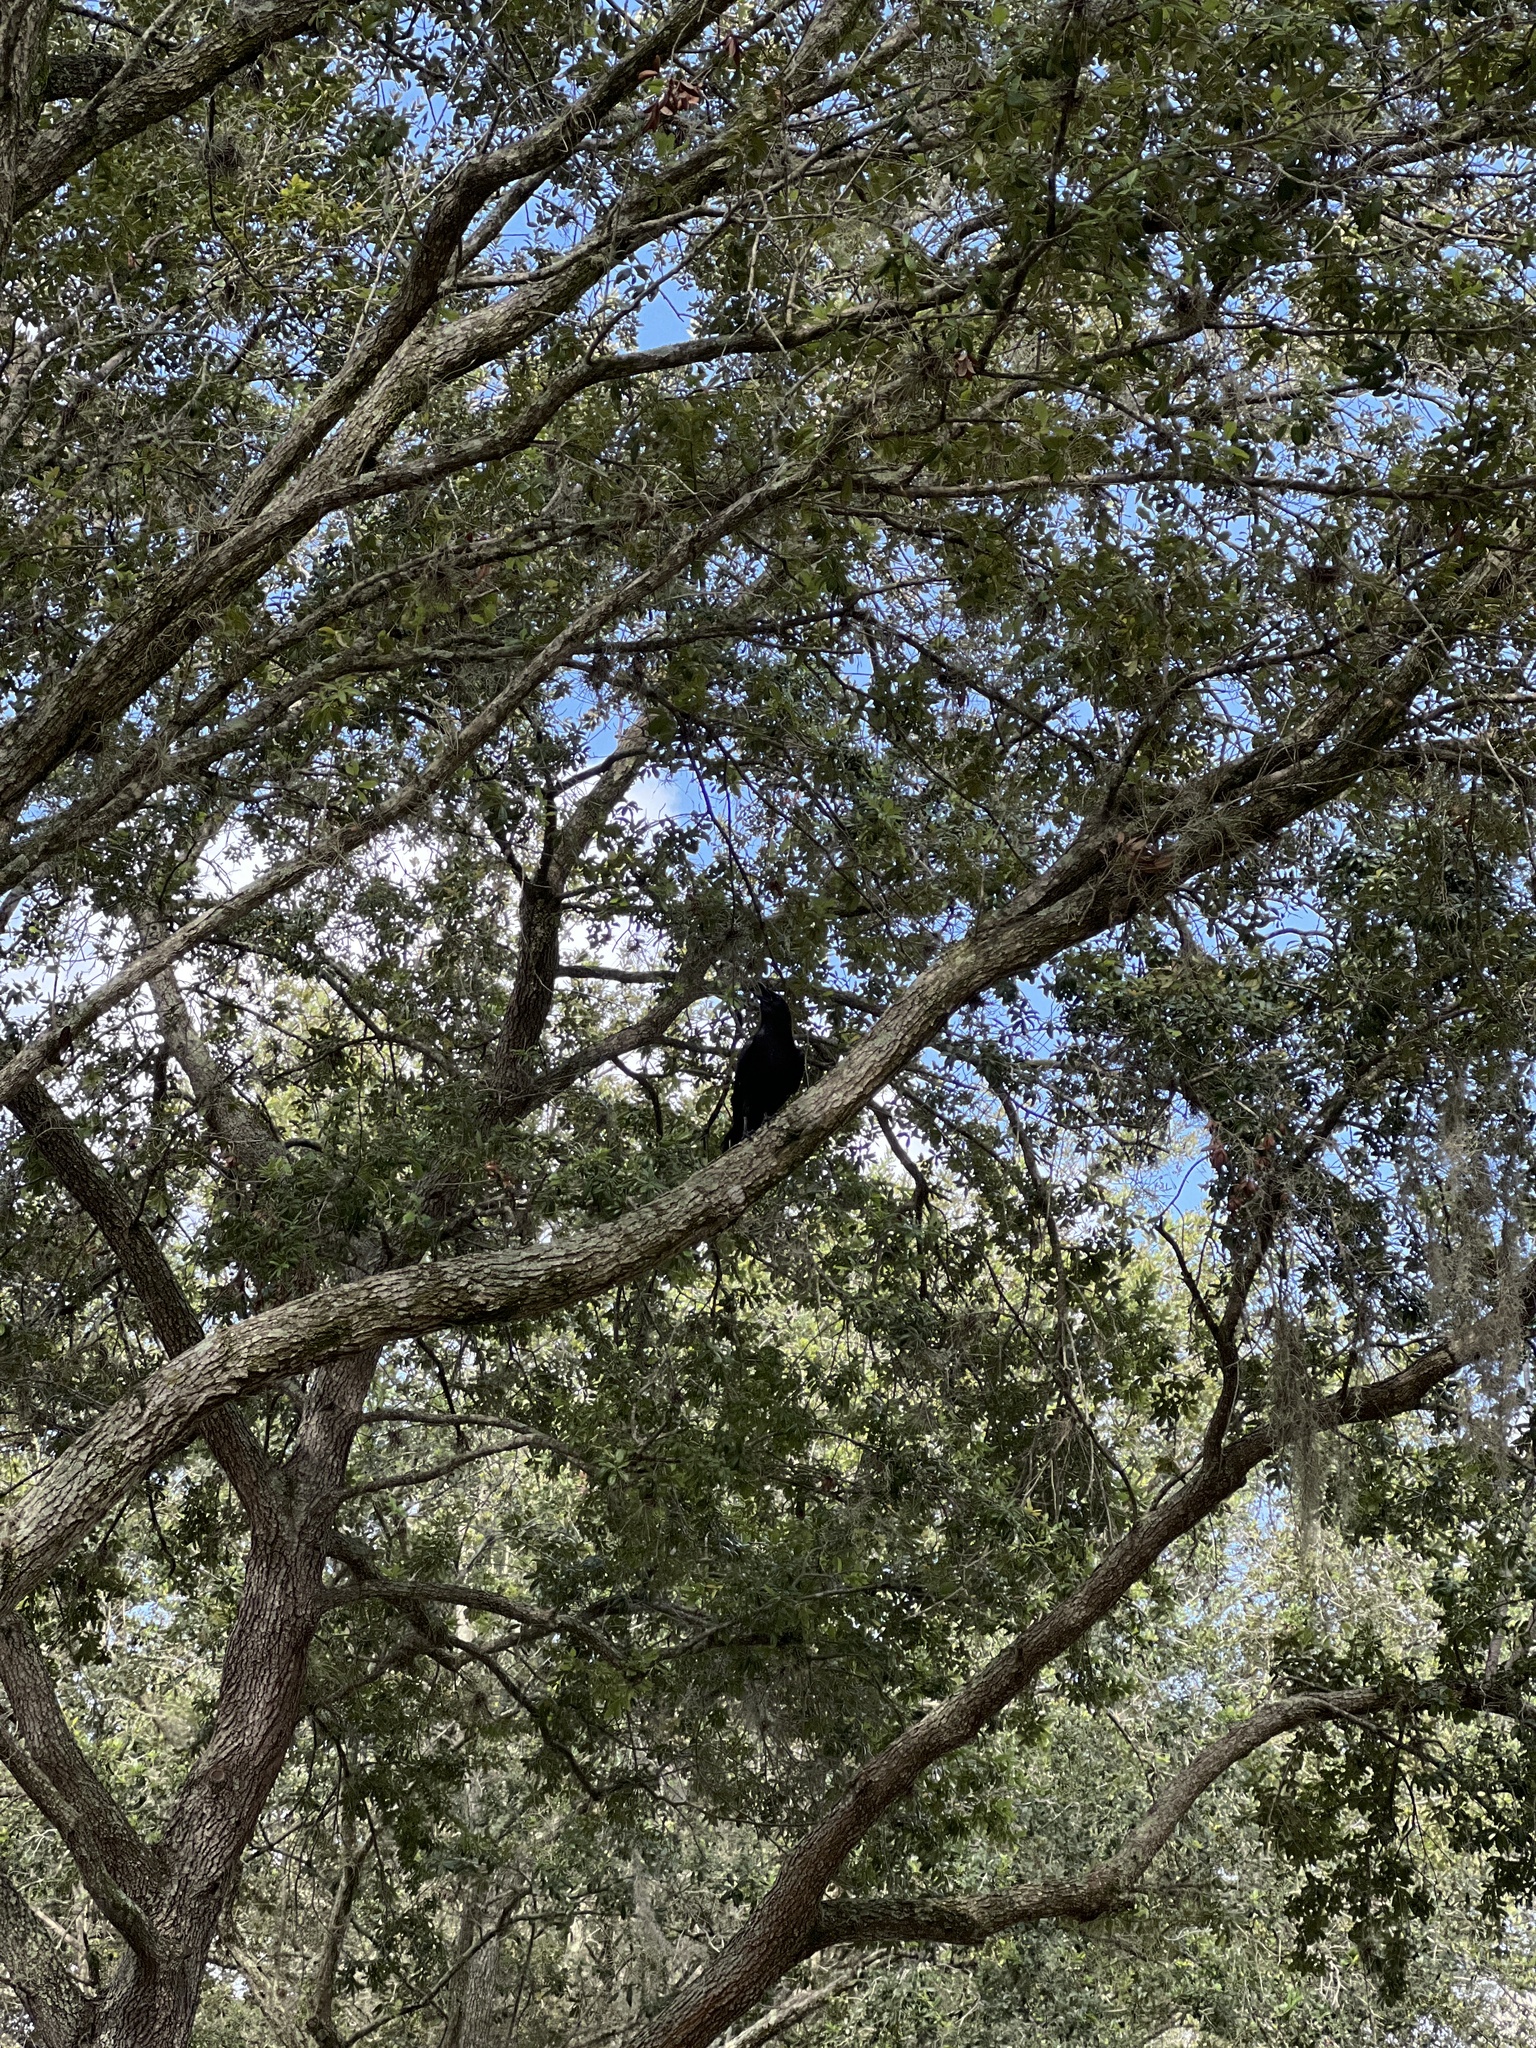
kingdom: Animalia
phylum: Chordata
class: Aves
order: Passeriformes
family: Corvidae
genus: Corvus
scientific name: Corvus brachyrhynchos
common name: American crow
